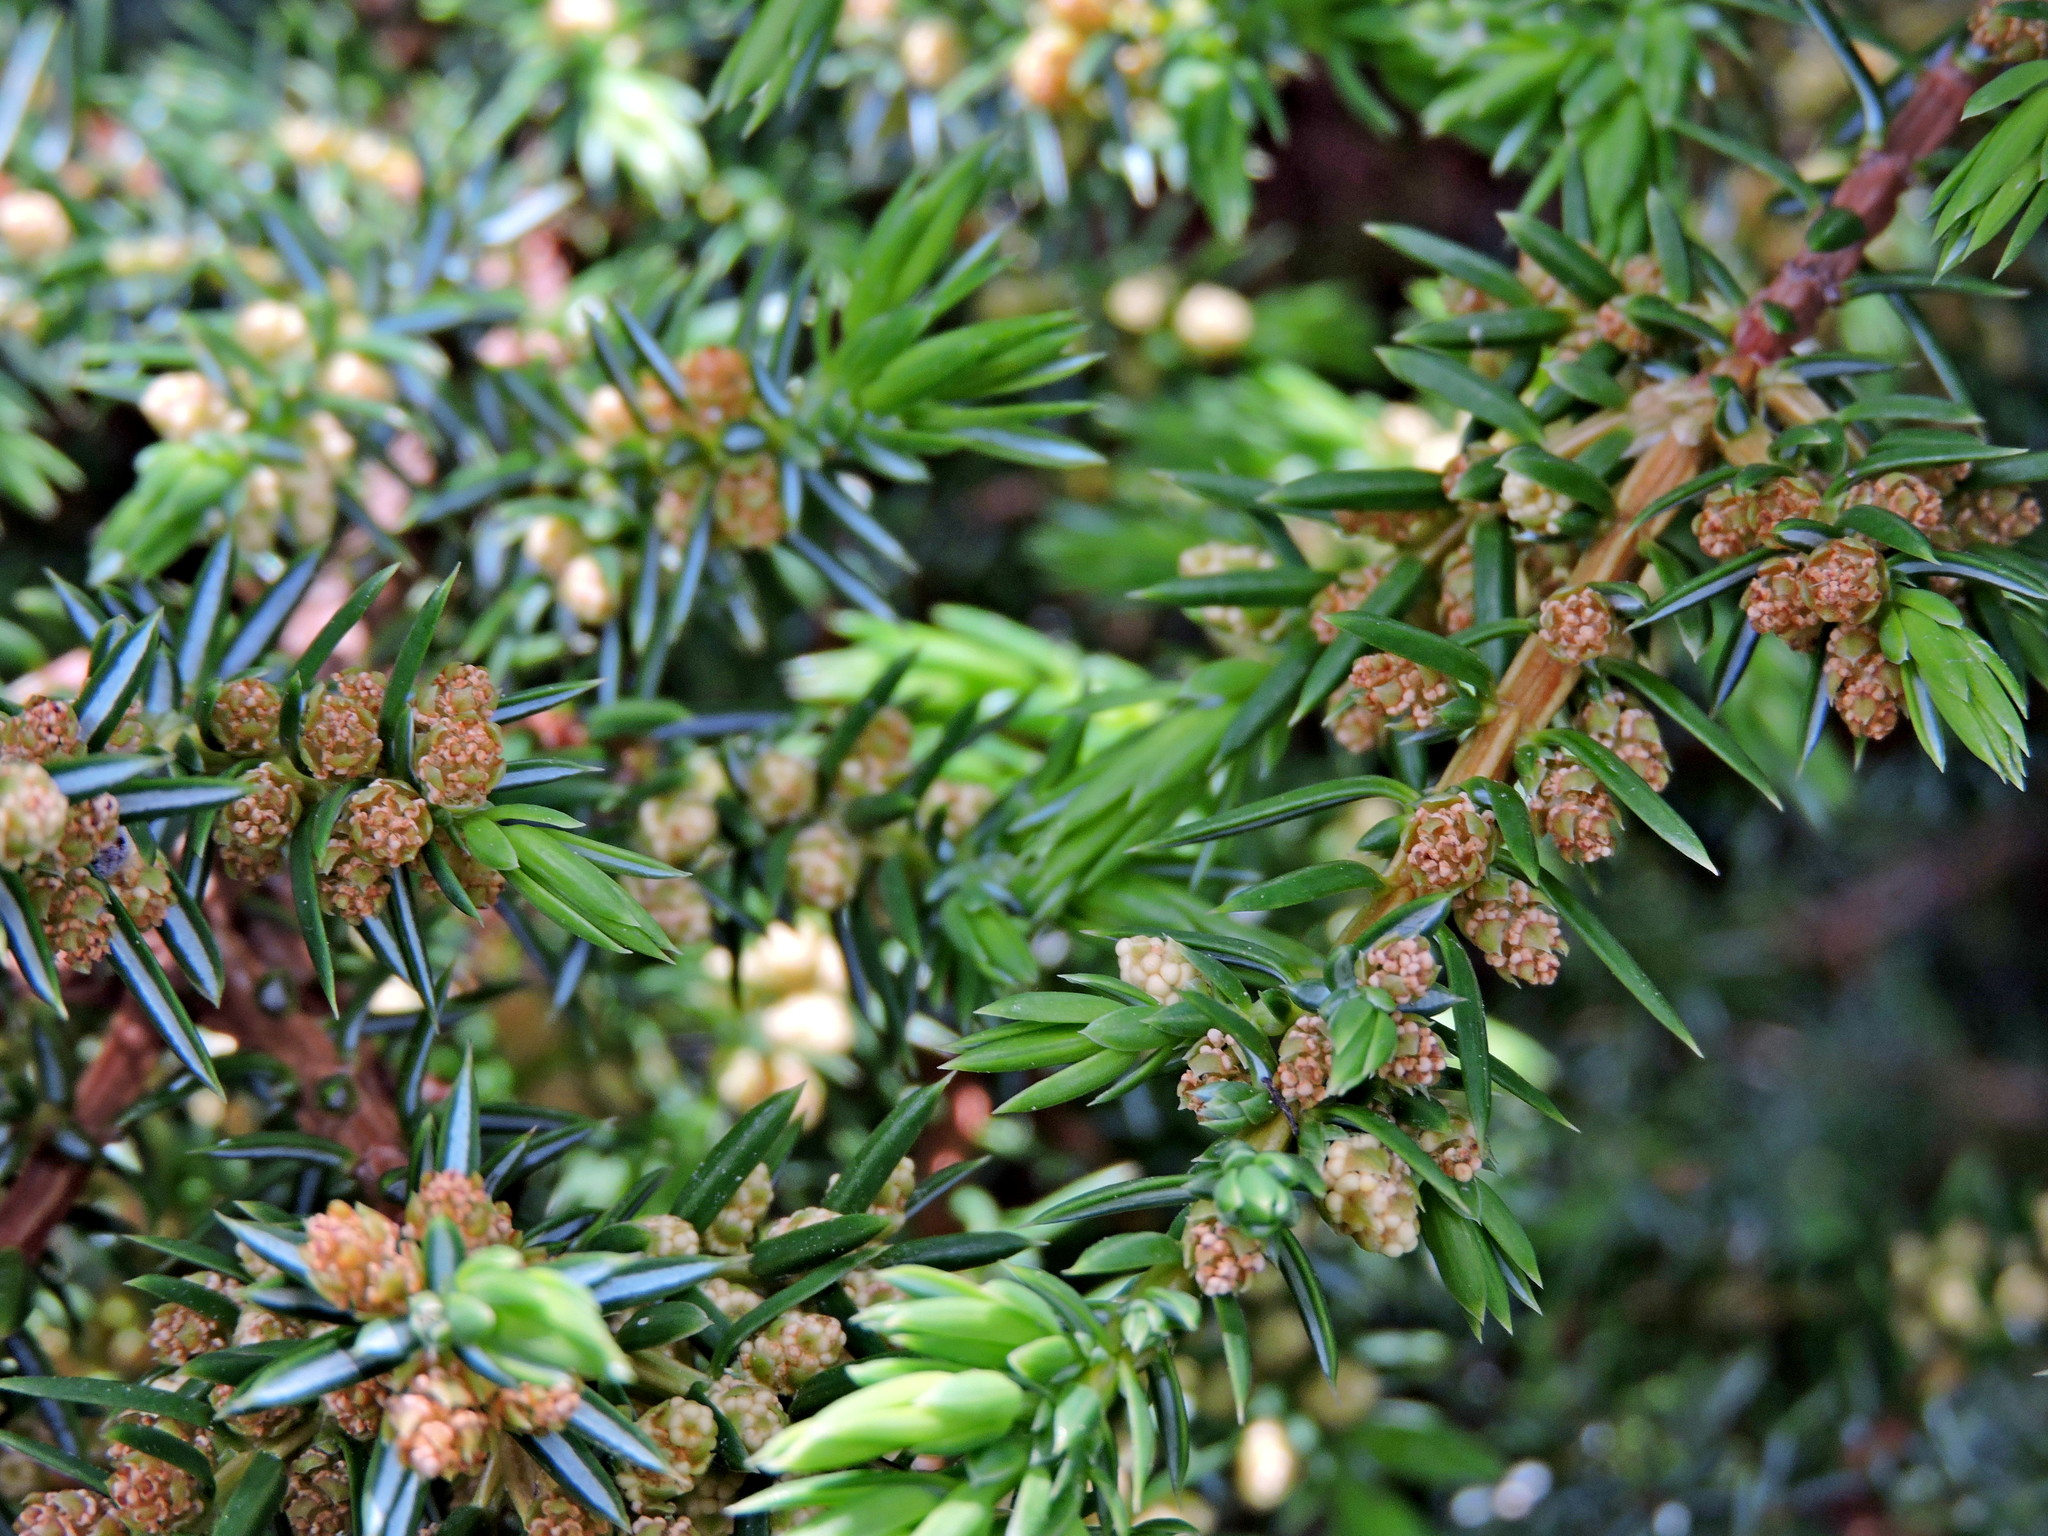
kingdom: Plantae
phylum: Tracheophyta
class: Pinopsida
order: Pinales
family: Cupressaceae
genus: Juniperus
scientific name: Juniperus communis
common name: Common juniper
